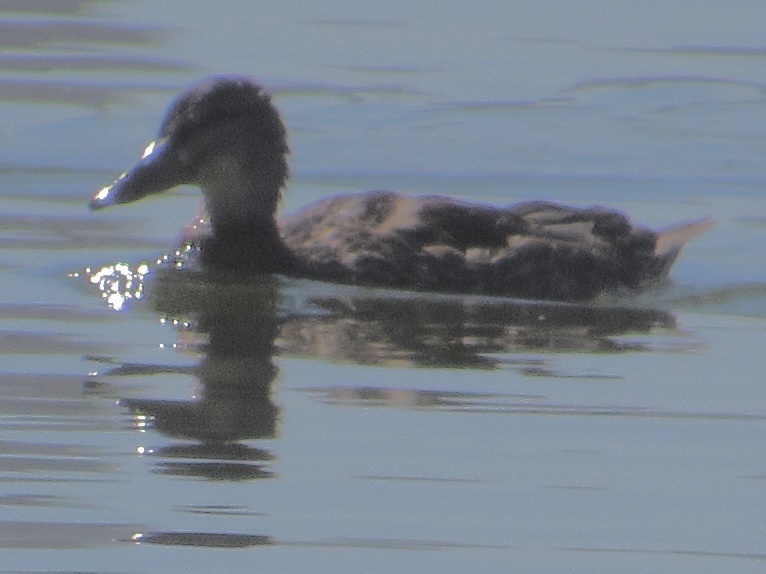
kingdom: Animalia
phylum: Chordata
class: Aves
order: Anseriformes
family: Anatidae
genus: Anas
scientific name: Anas platyrhynchos
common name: Mallard
